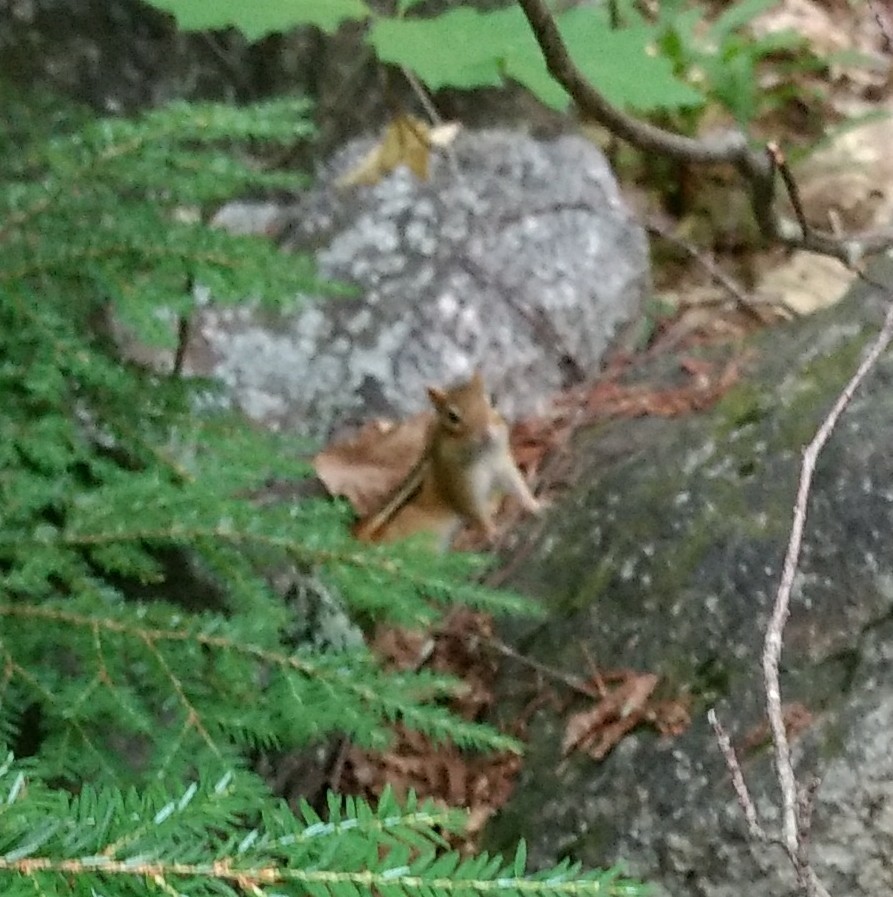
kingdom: Animalia
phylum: Chordata
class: Mammalia
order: Rodentia
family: Sciuridae
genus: Tamias
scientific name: Tamias striatus
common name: Eastern chipmunk
